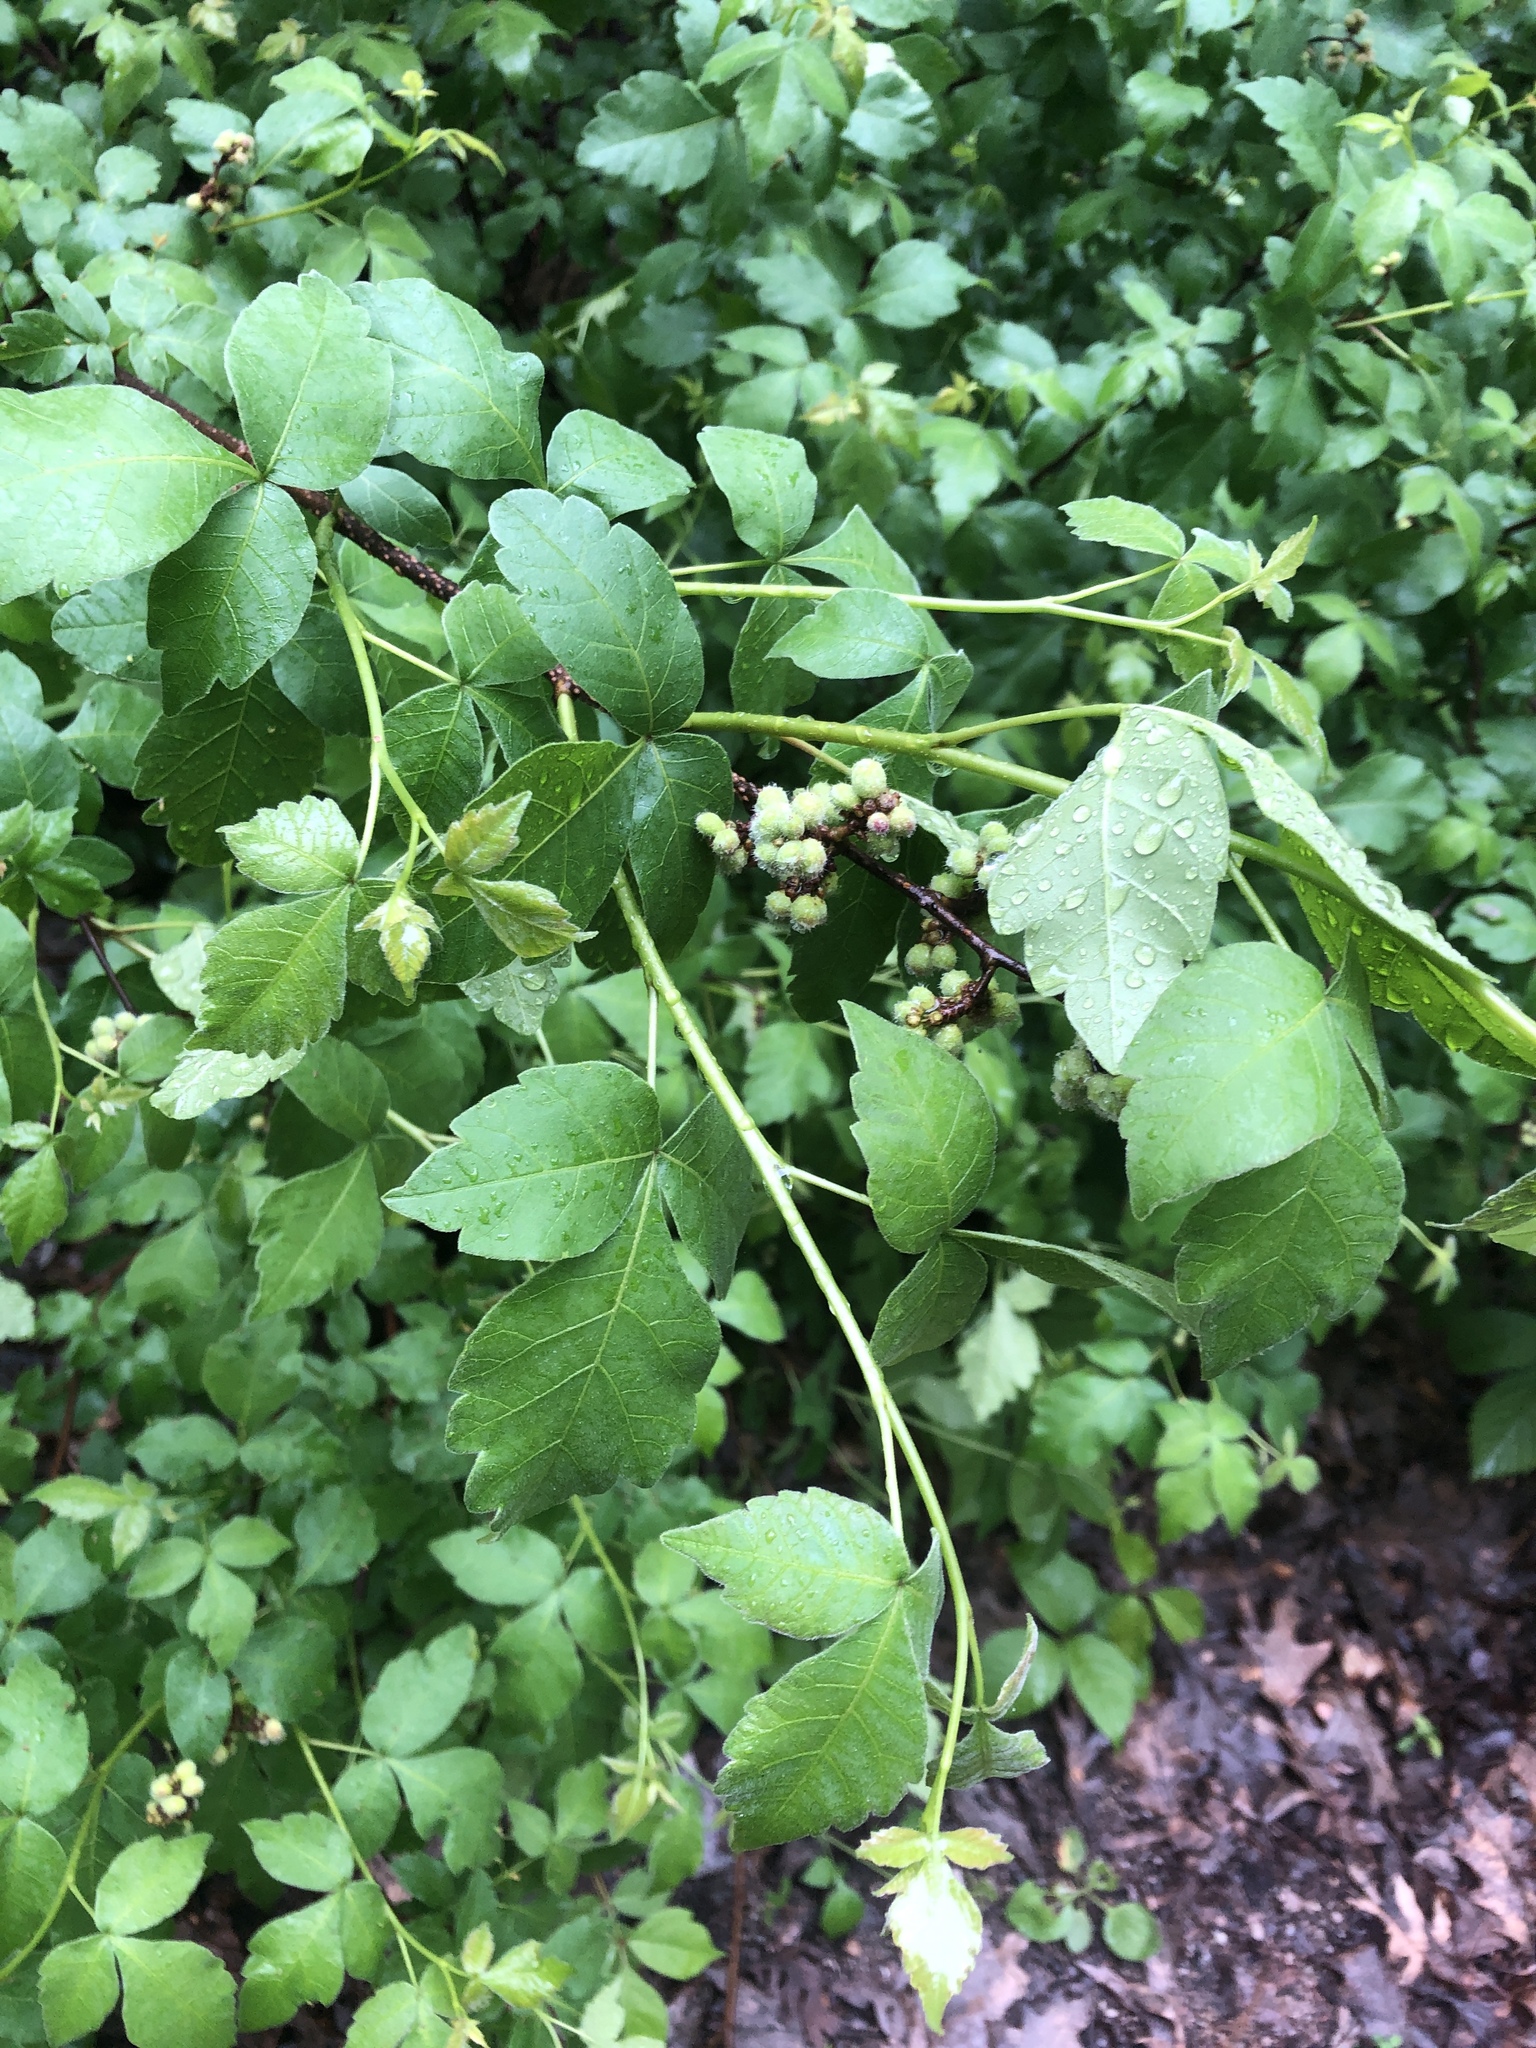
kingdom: Plantae
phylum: Tracheophyta
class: Magnoliopsida
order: Sapindales
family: Anacardiaceae
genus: Rhus
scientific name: Rhus aromatica
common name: Aromatic sumac
